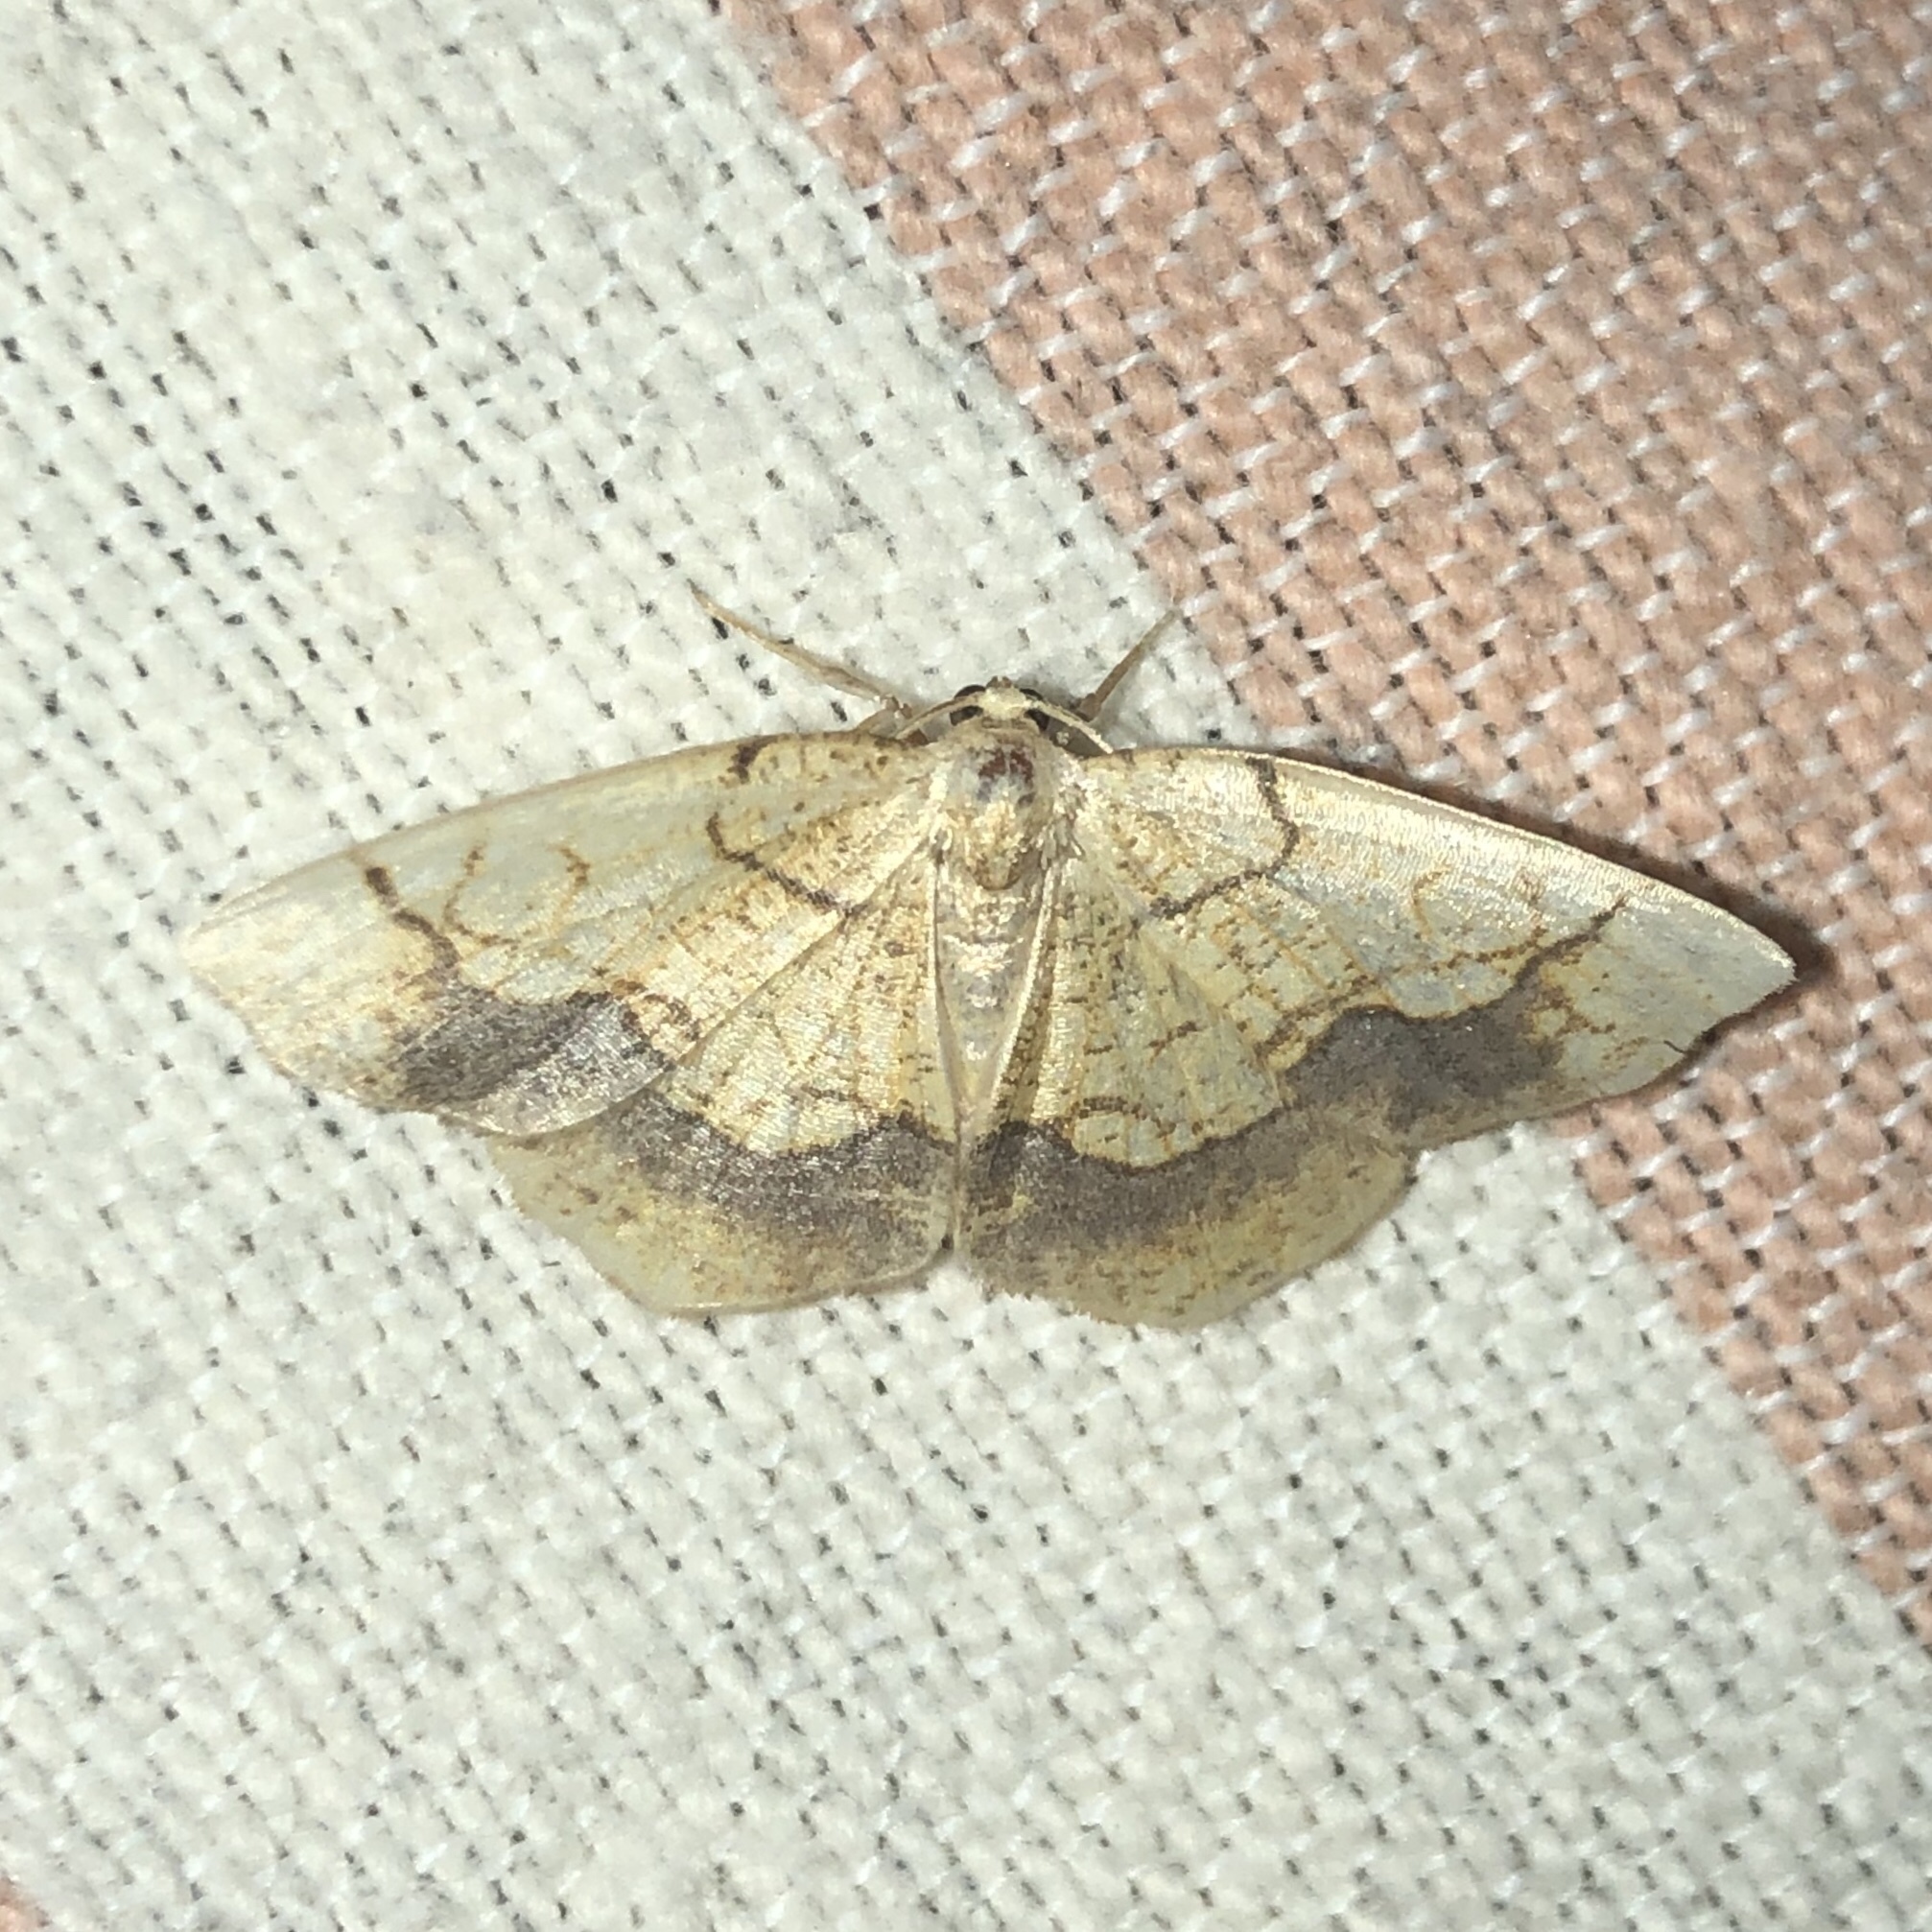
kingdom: Animalia
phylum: Arthropoda
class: Insecta
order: Lepidoptera
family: Geometridae
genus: Nematocampa
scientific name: Nematocampa resistaria
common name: Horned spanworm moth
